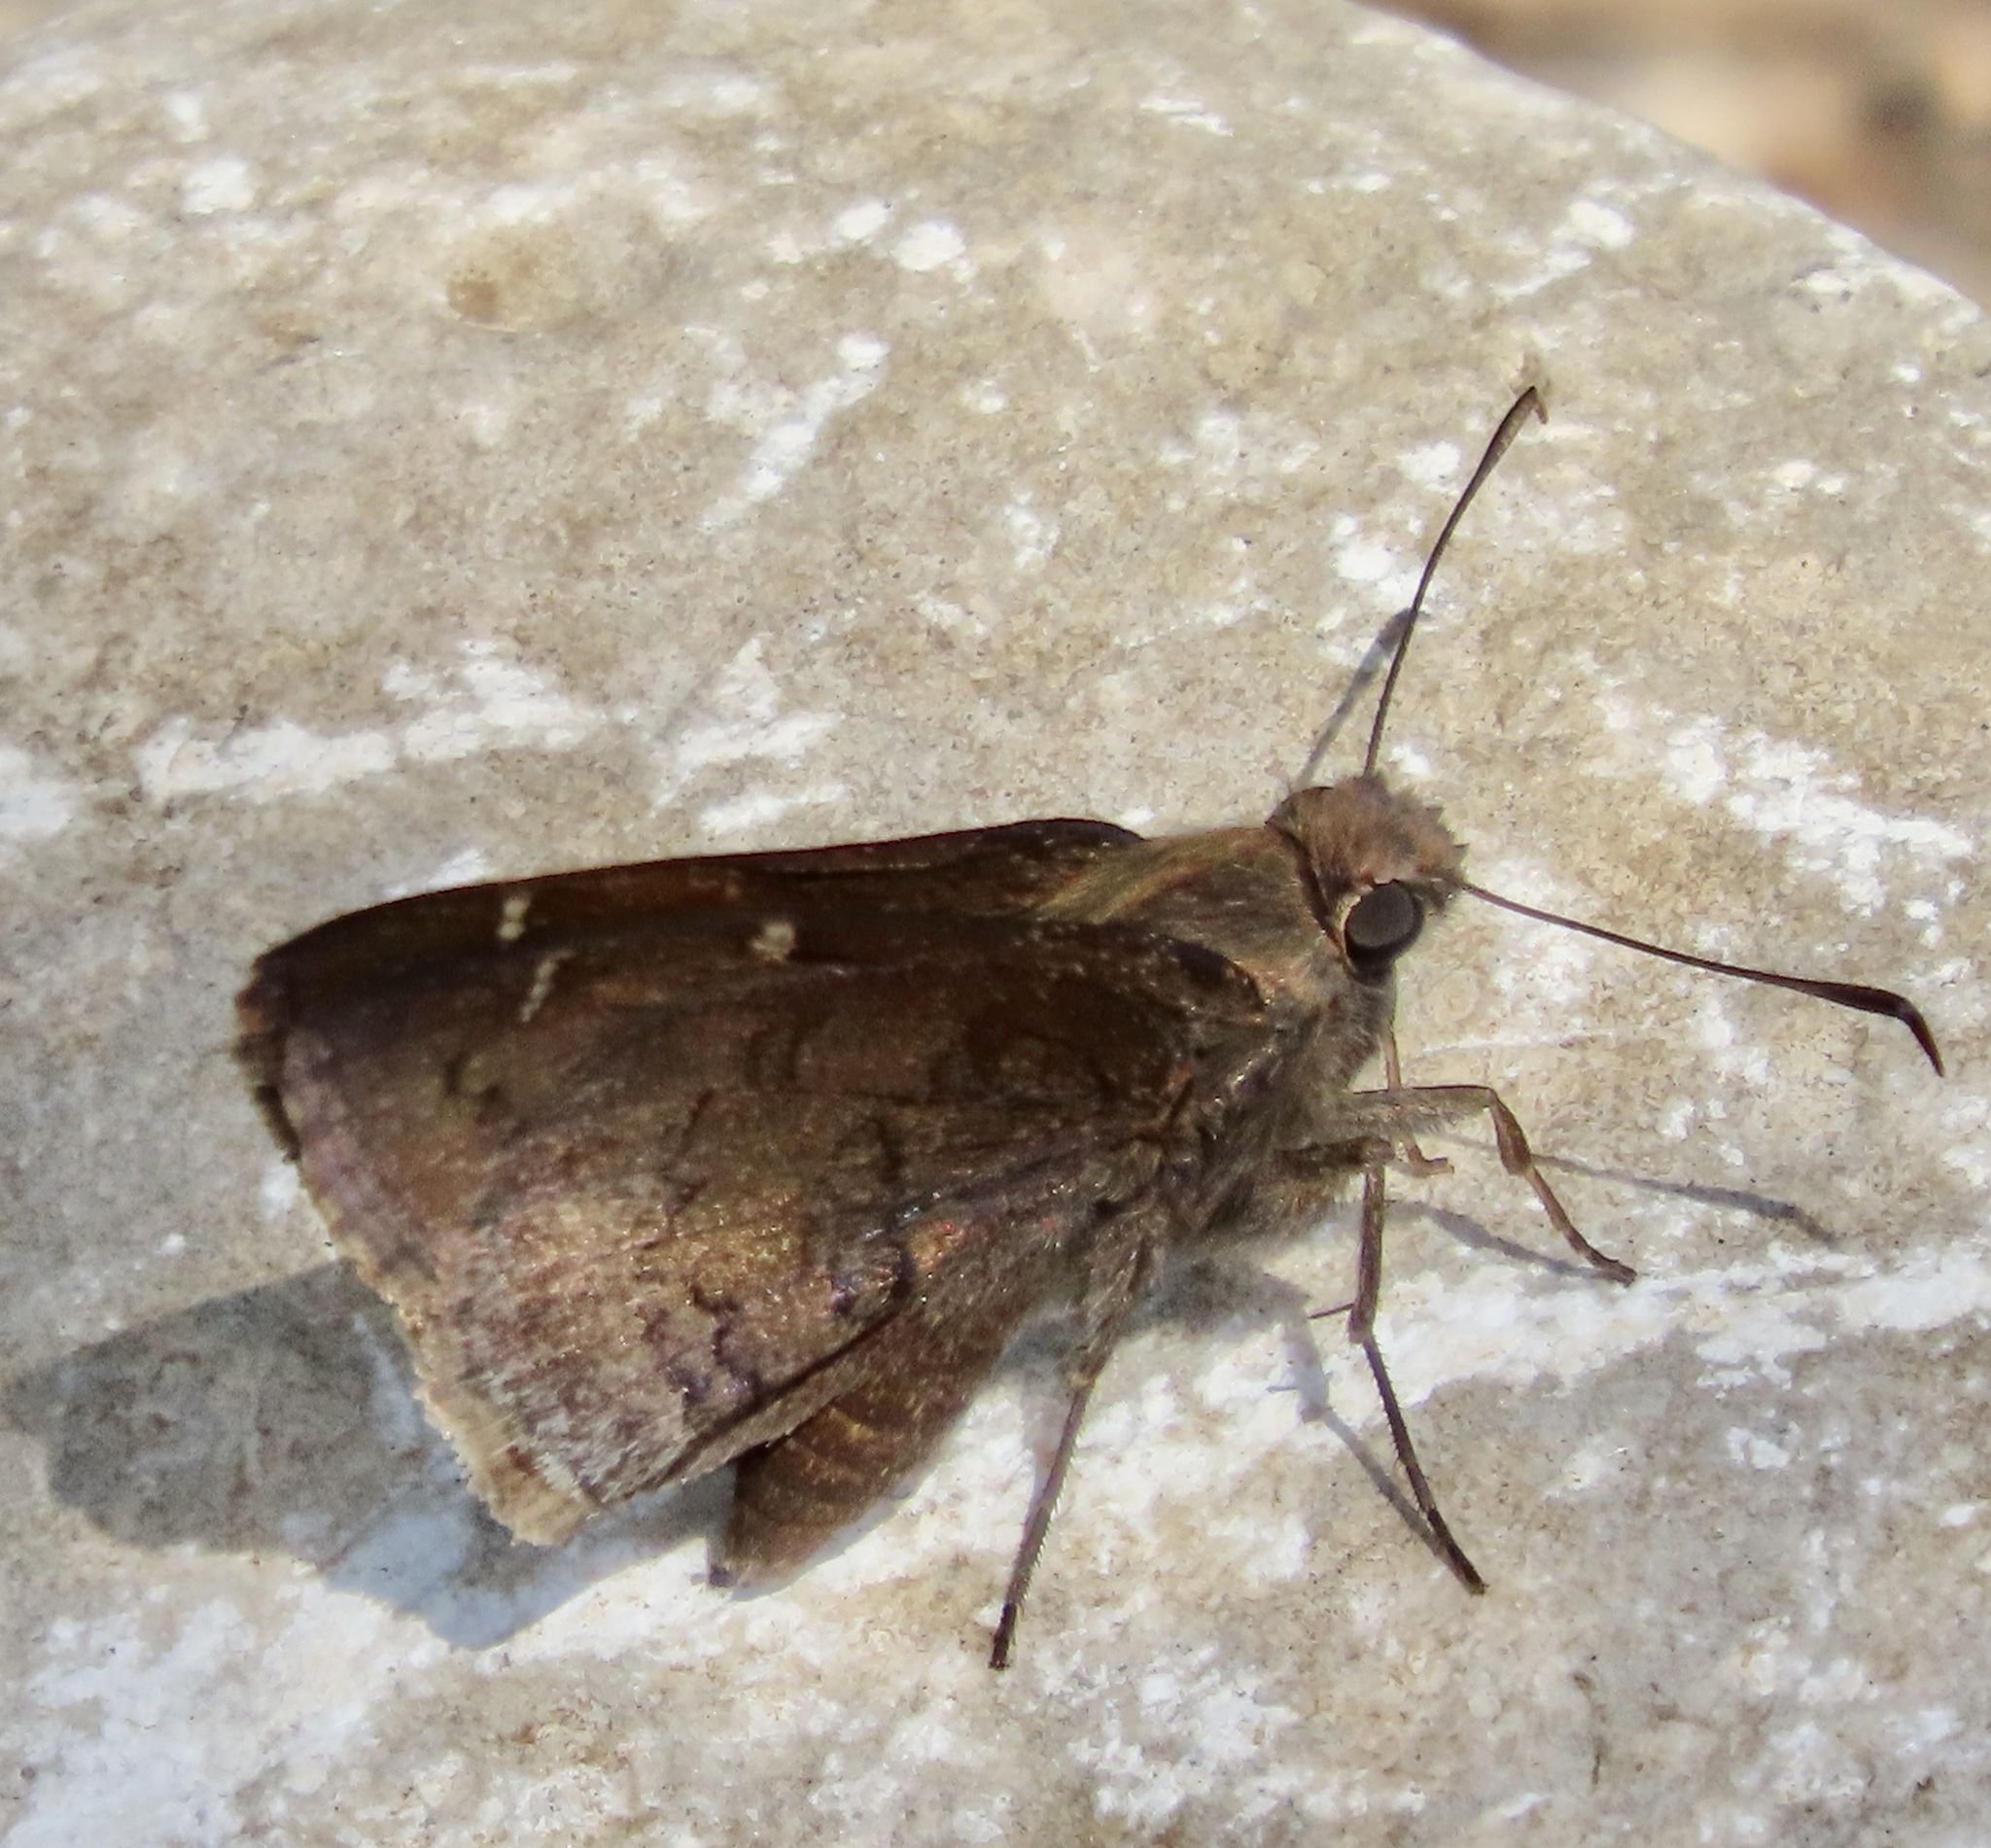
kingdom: Animalia
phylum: Arthropoda
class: Insecta
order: Lepidoptera
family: Hesperiidae
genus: Thorybes
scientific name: Thorybes pylades
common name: Northern cloudywing
